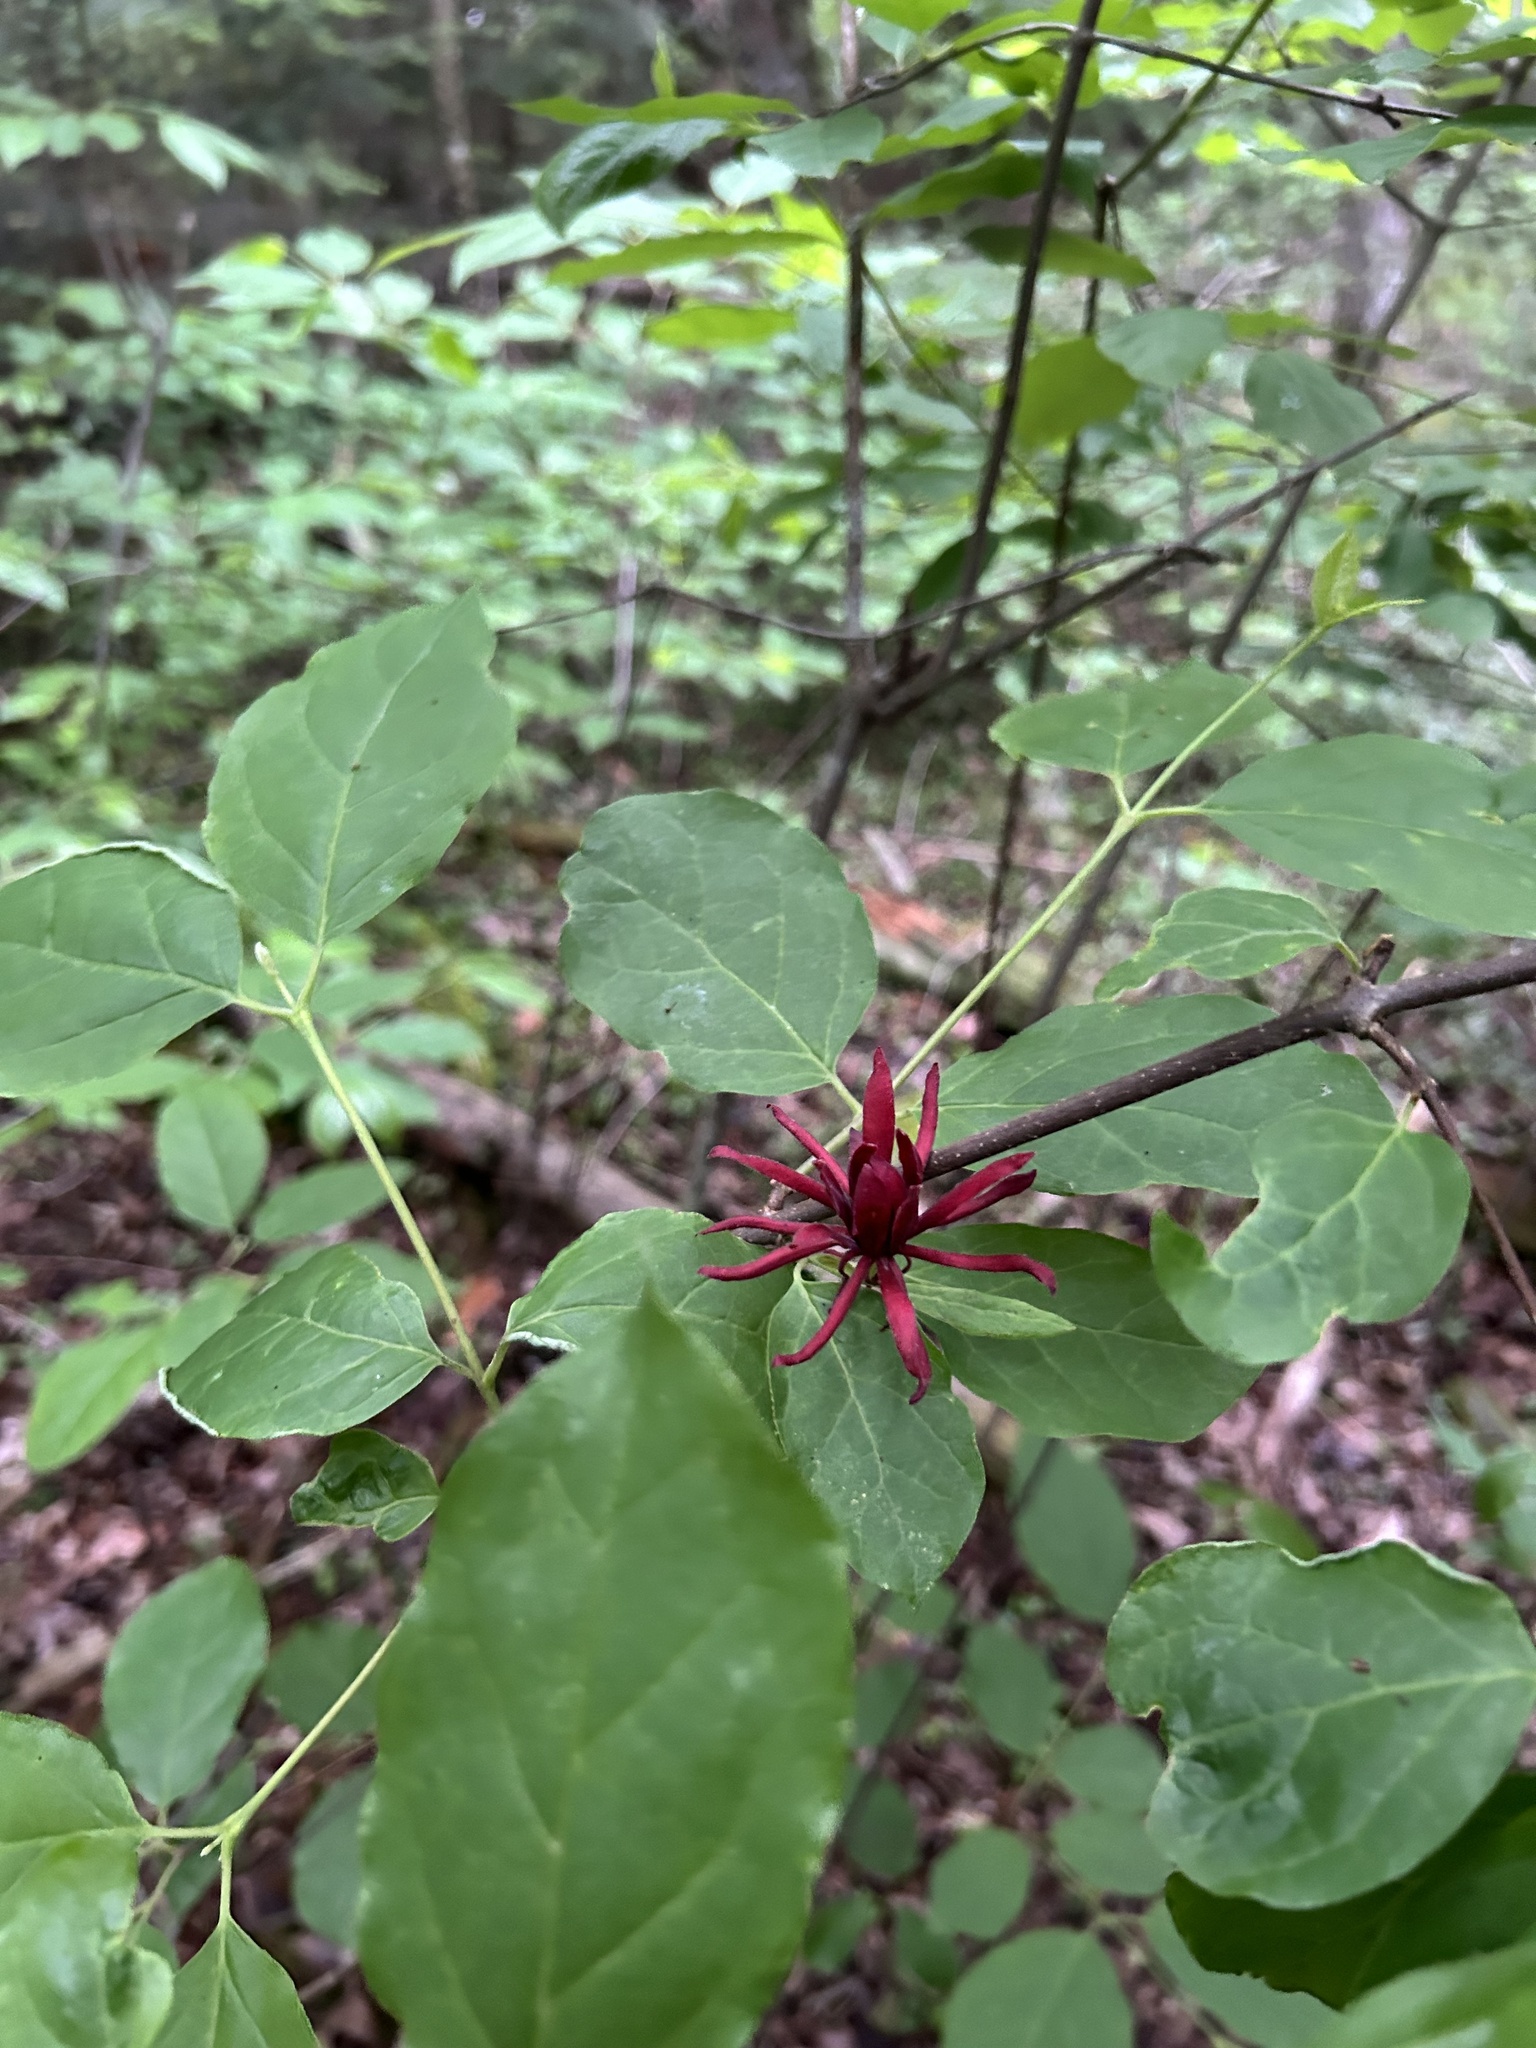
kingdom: Plantae
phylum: Tracheophyta
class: Magnoliopsida
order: Laurales
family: Calycanthaceae
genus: Calycanthus
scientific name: Calycanthus floridus
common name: Carolina-allspice
